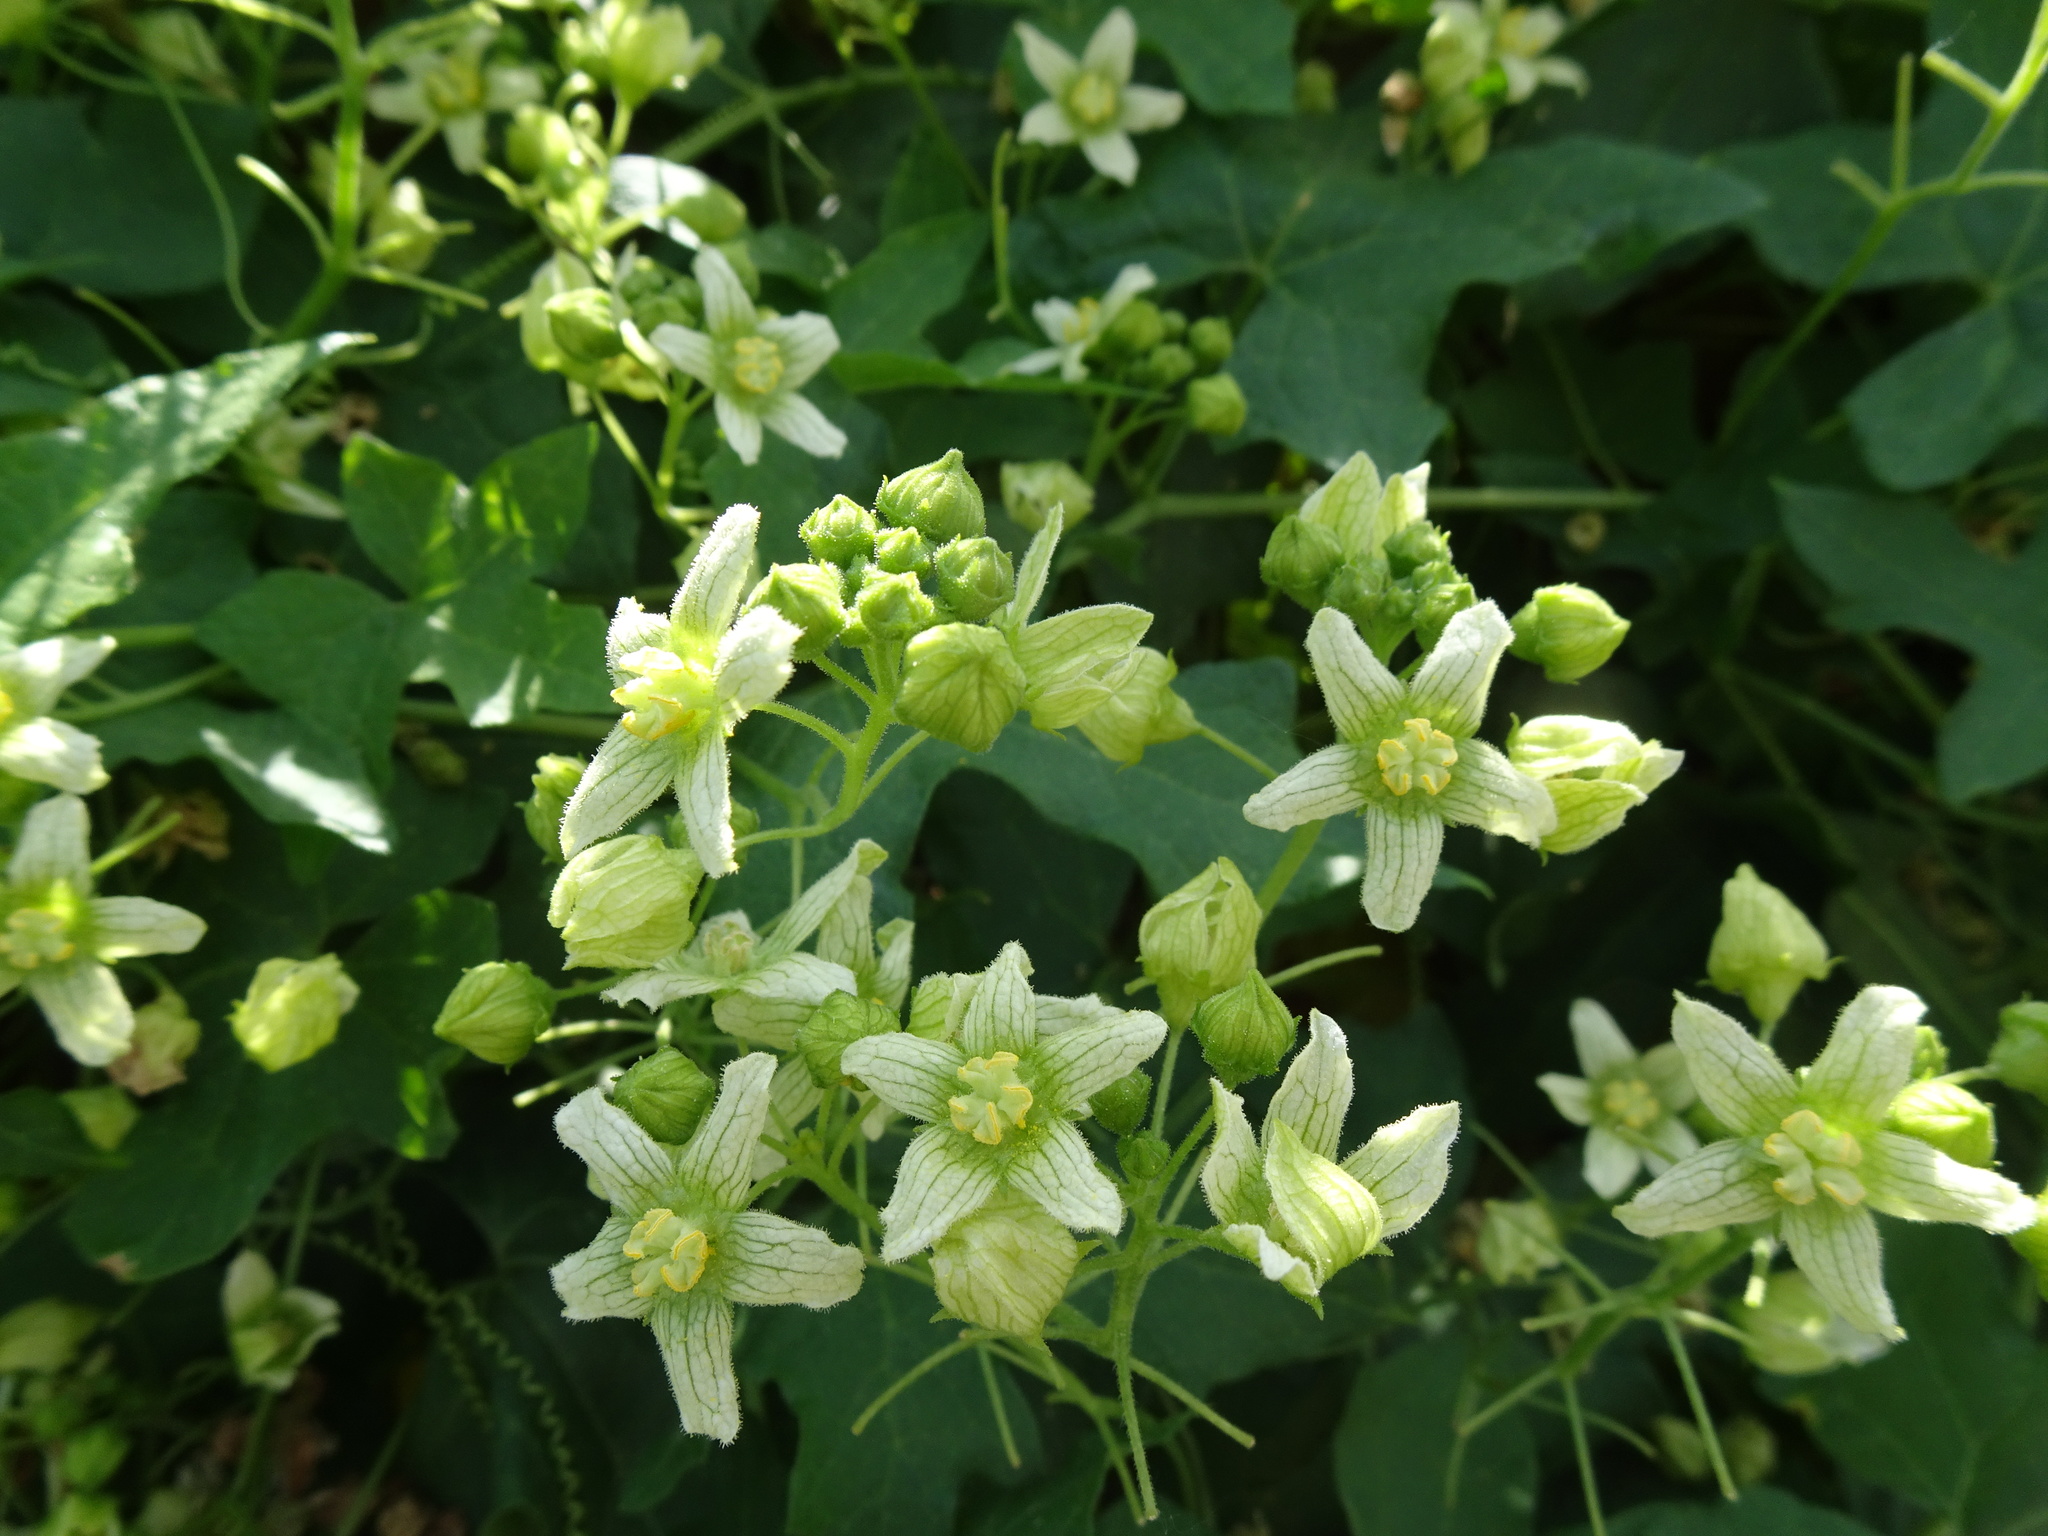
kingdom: Plantae
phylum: Tracheophyta
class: Magnoliopsida
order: Cucurbitales
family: Cucurbitaceae
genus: Bryonia
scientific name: Bryonia dioica
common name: White bryony
